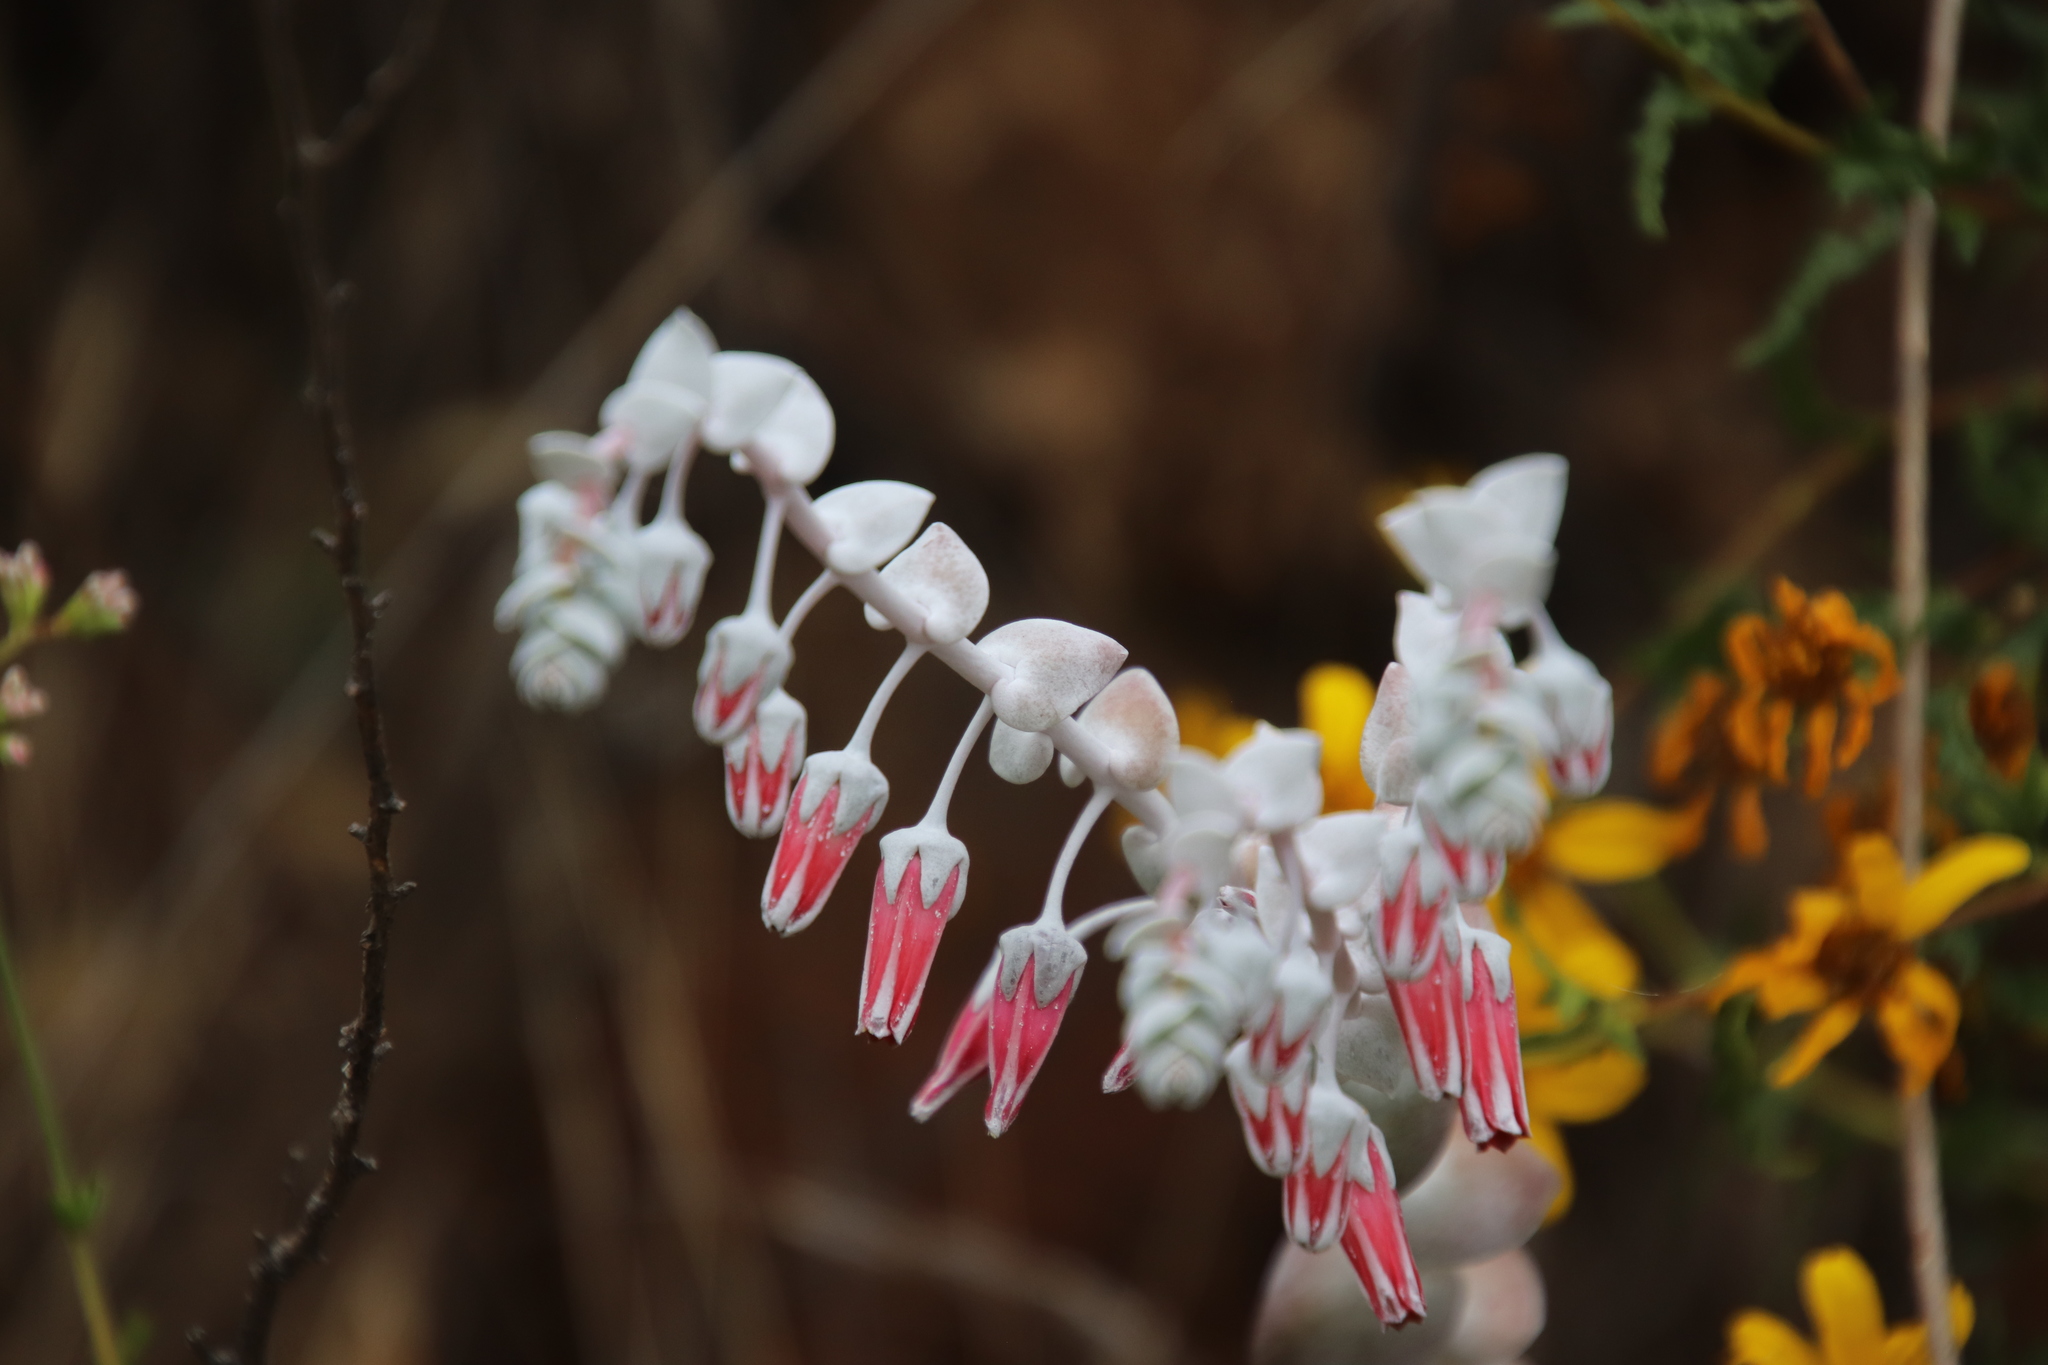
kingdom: Plantae
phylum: Tracheophyta
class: Magnoliopsida
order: Saxifragales
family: Crassulaceae
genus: Dudleya
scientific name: Dudleya pulverulenta
